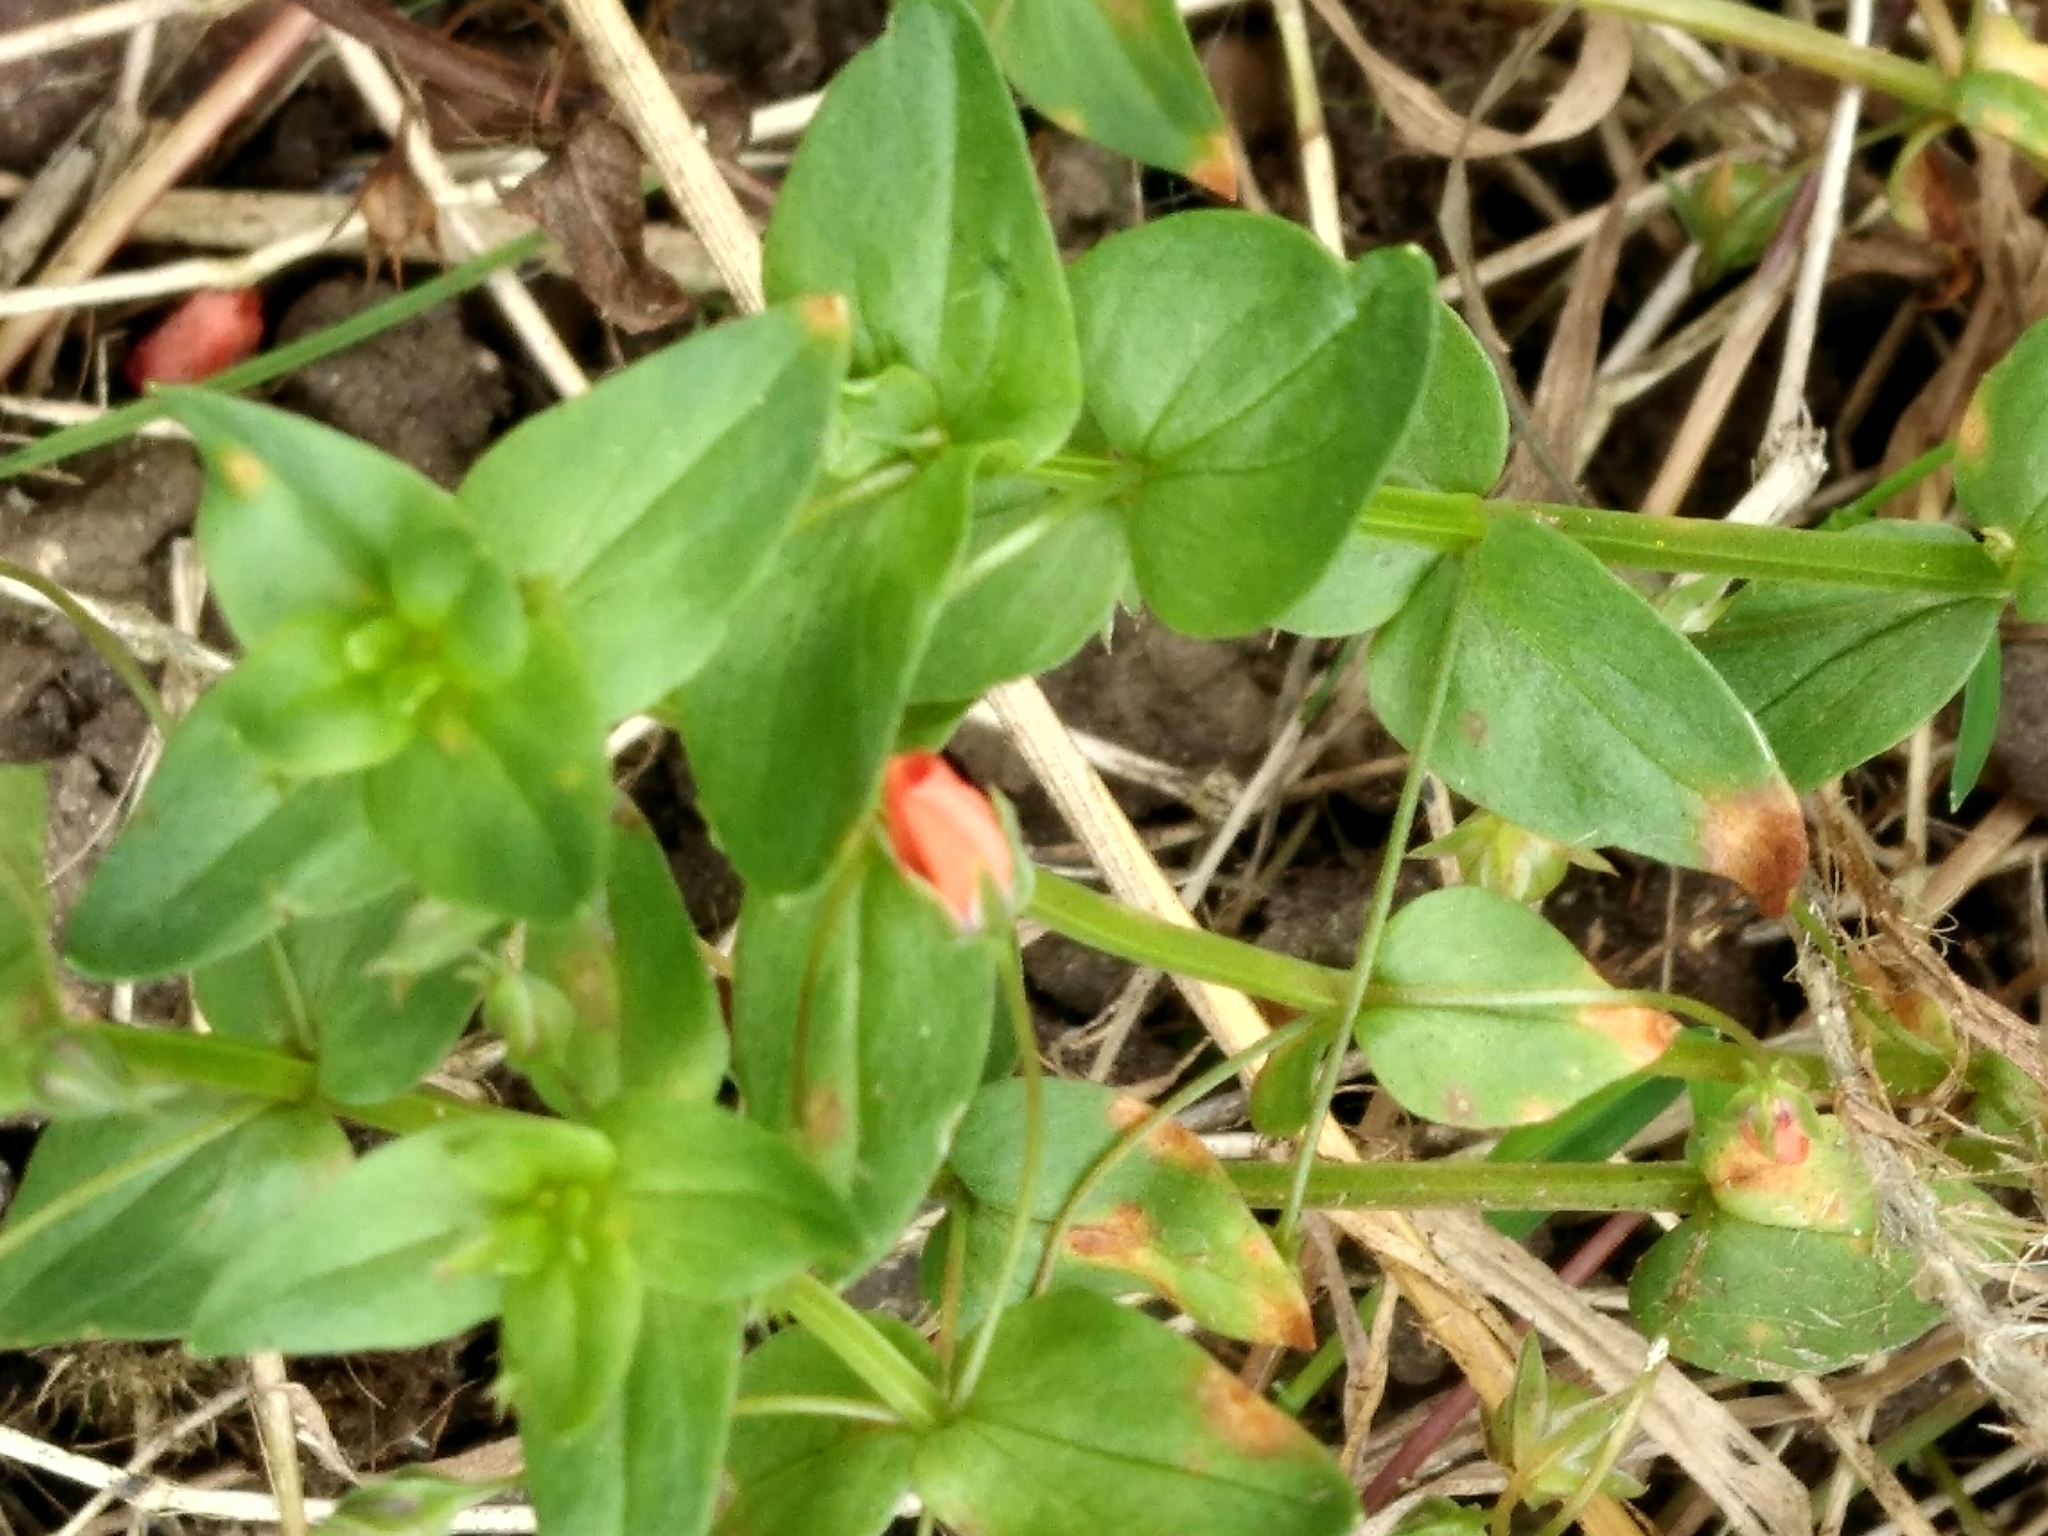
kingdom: Plantae
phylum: Tracheophyta
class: Magnoliopsida
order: Ericales
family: Primulaceae
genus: Lysimachia
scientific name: Lysimachia arvensis
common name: Scarlet pimpernel
